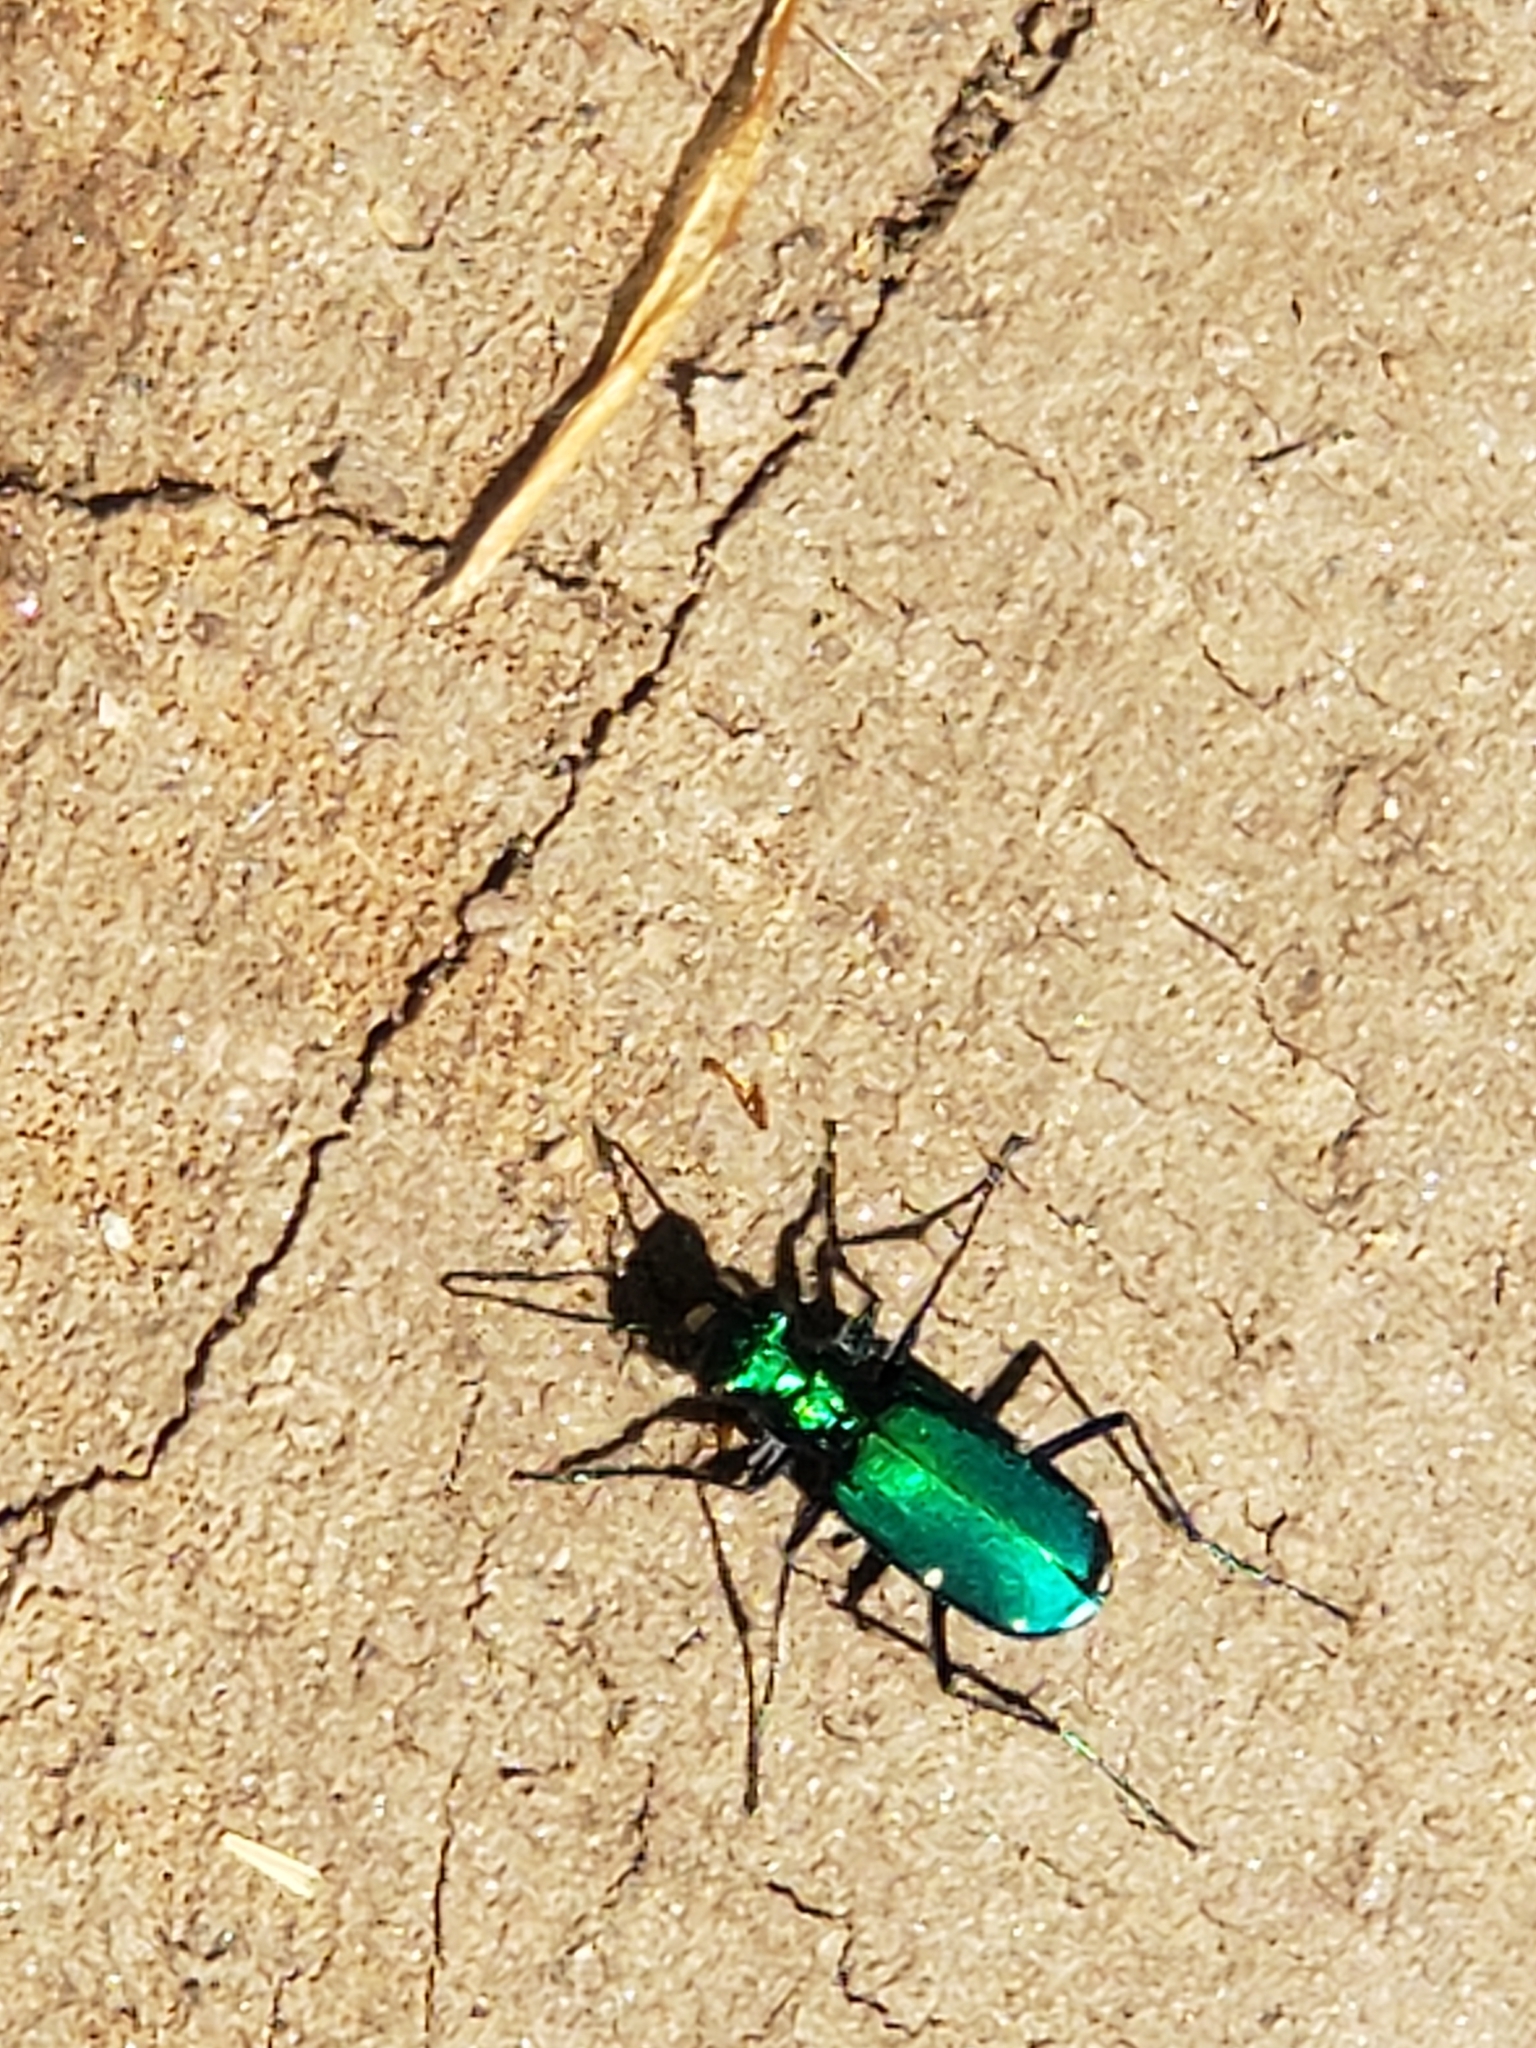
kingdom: Animalia
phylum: Arthropoda
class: Insecta
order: Coleoptera
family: Carabidae
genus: Cicindela
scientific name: Cicindela sexguttata
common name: Six-spotted tiger beetle
